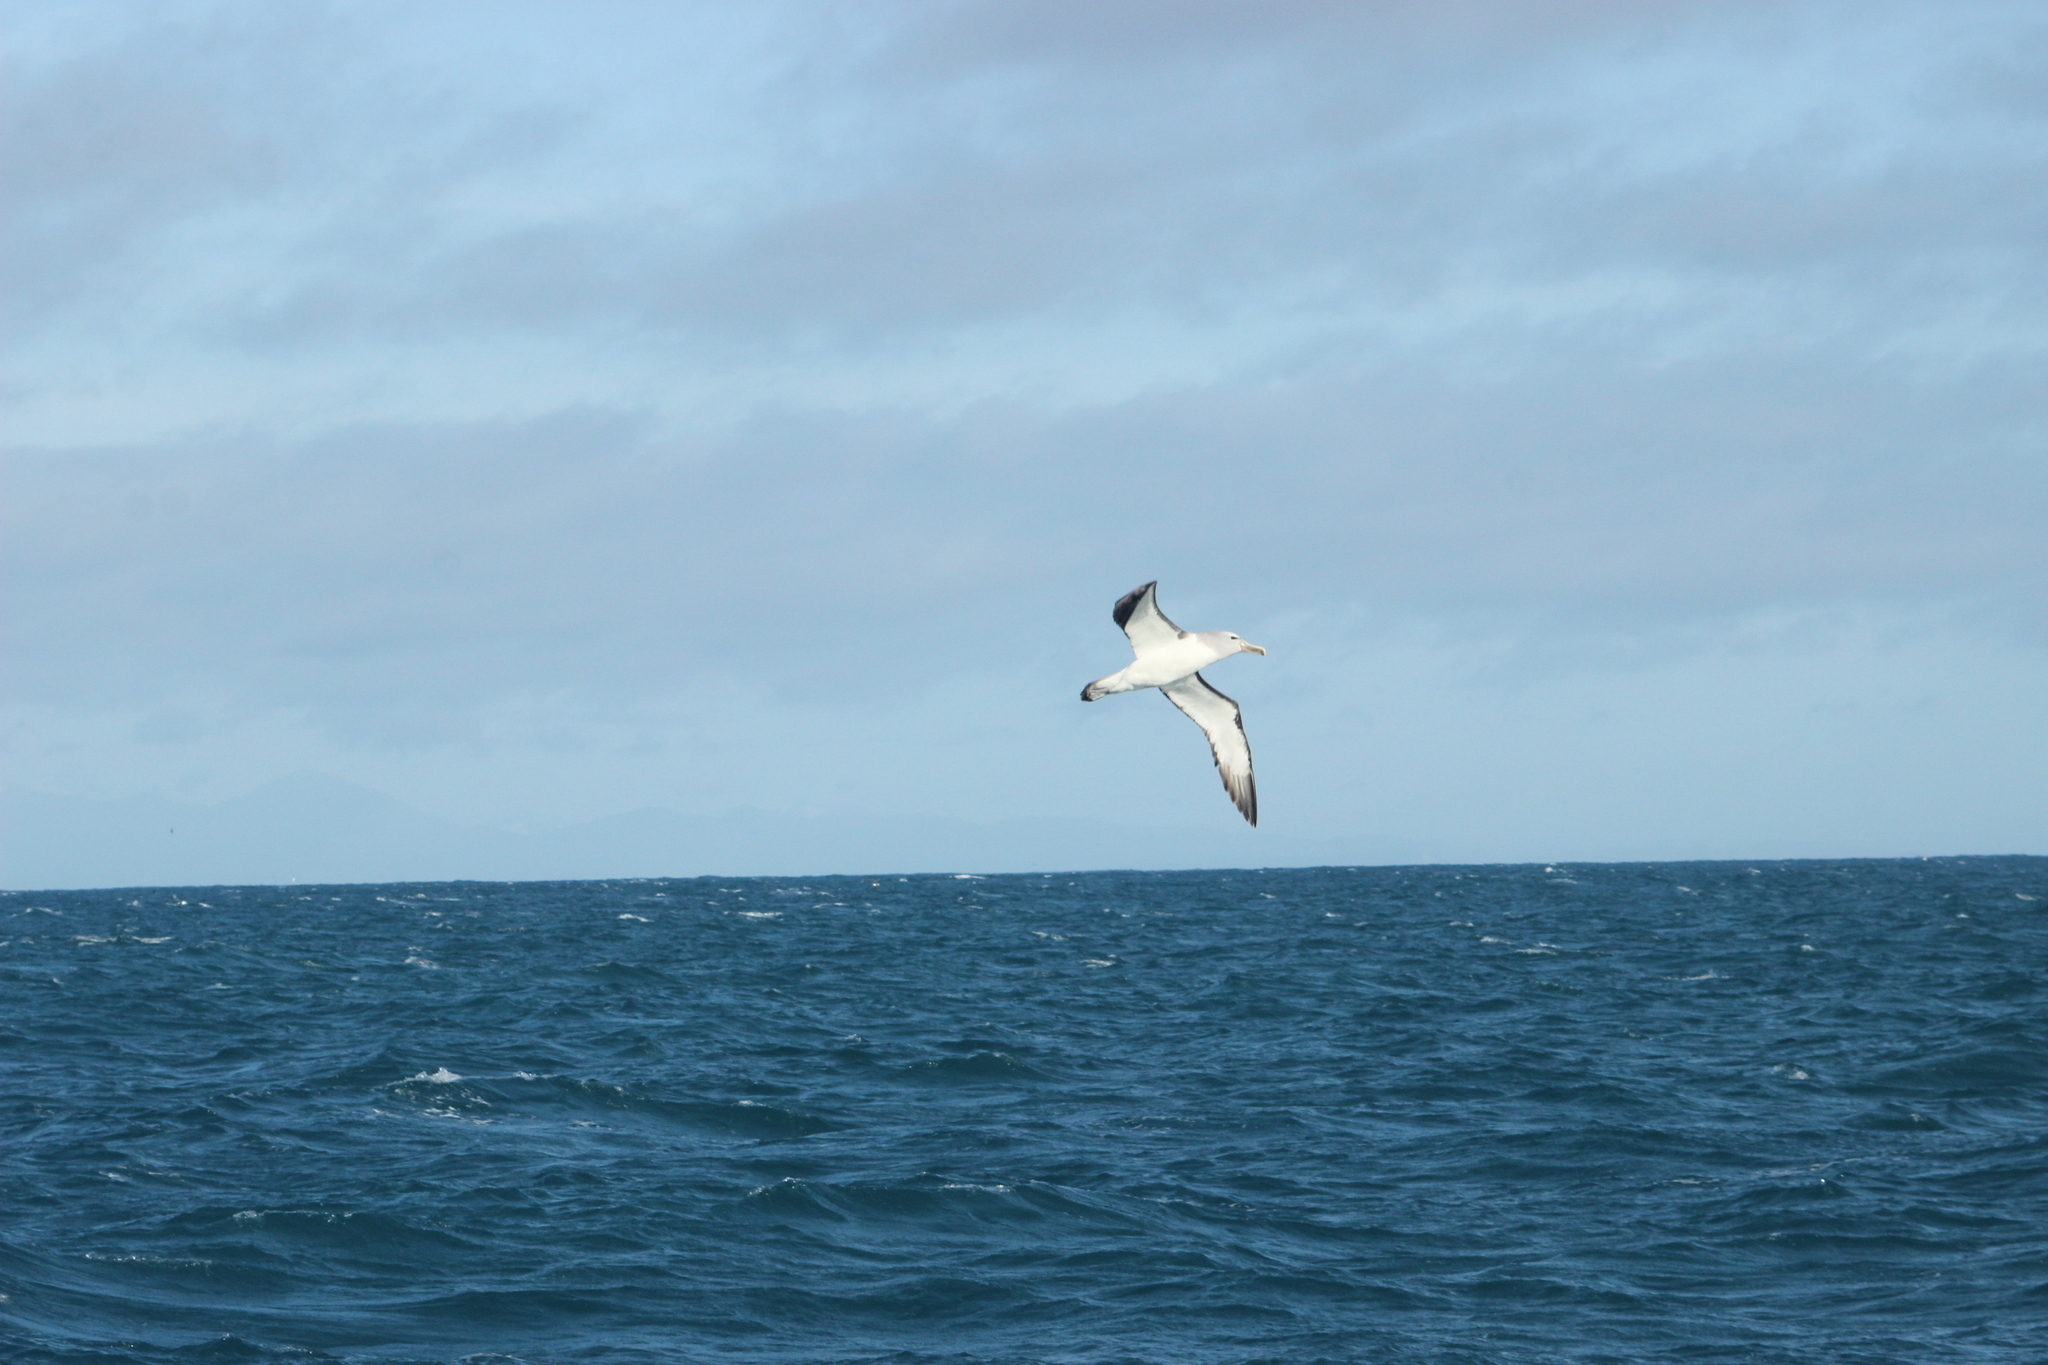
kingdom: Animalia
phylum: Chordata
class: Aves
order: Procellariiformes
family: Diomedeidae
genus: Thalassarche
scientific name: Thalassarche salvini
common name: Salvin's albatross
